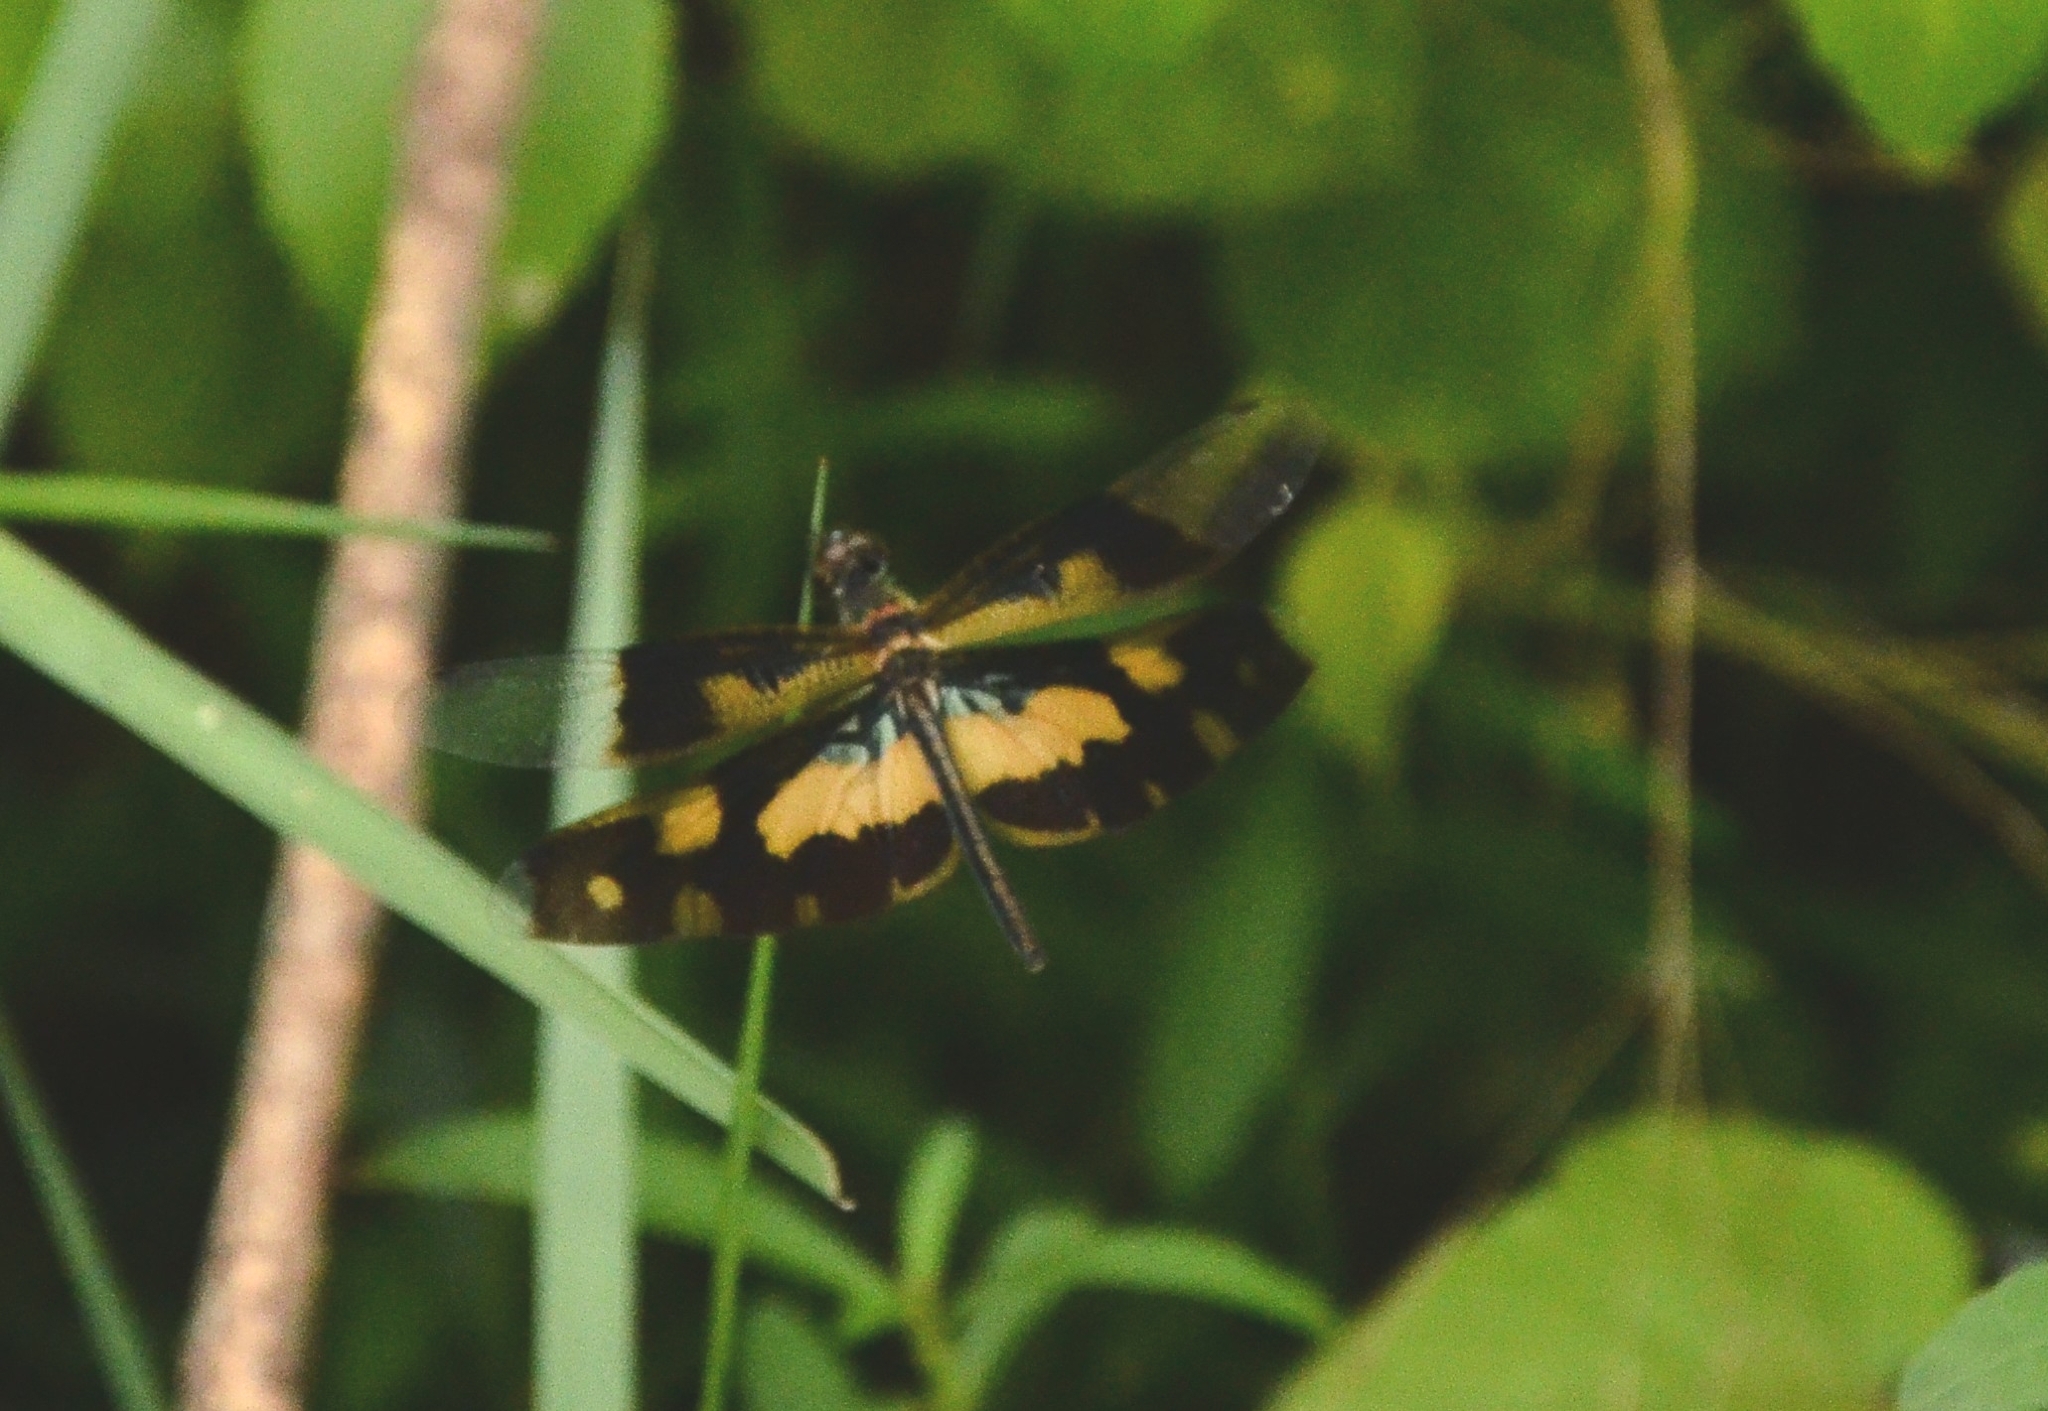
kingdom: Animalia
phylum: Arthropoda
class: Insecta
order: Odonata
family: Libellulidae
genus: Rhyothemis
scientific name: Rhyothemis variegata
